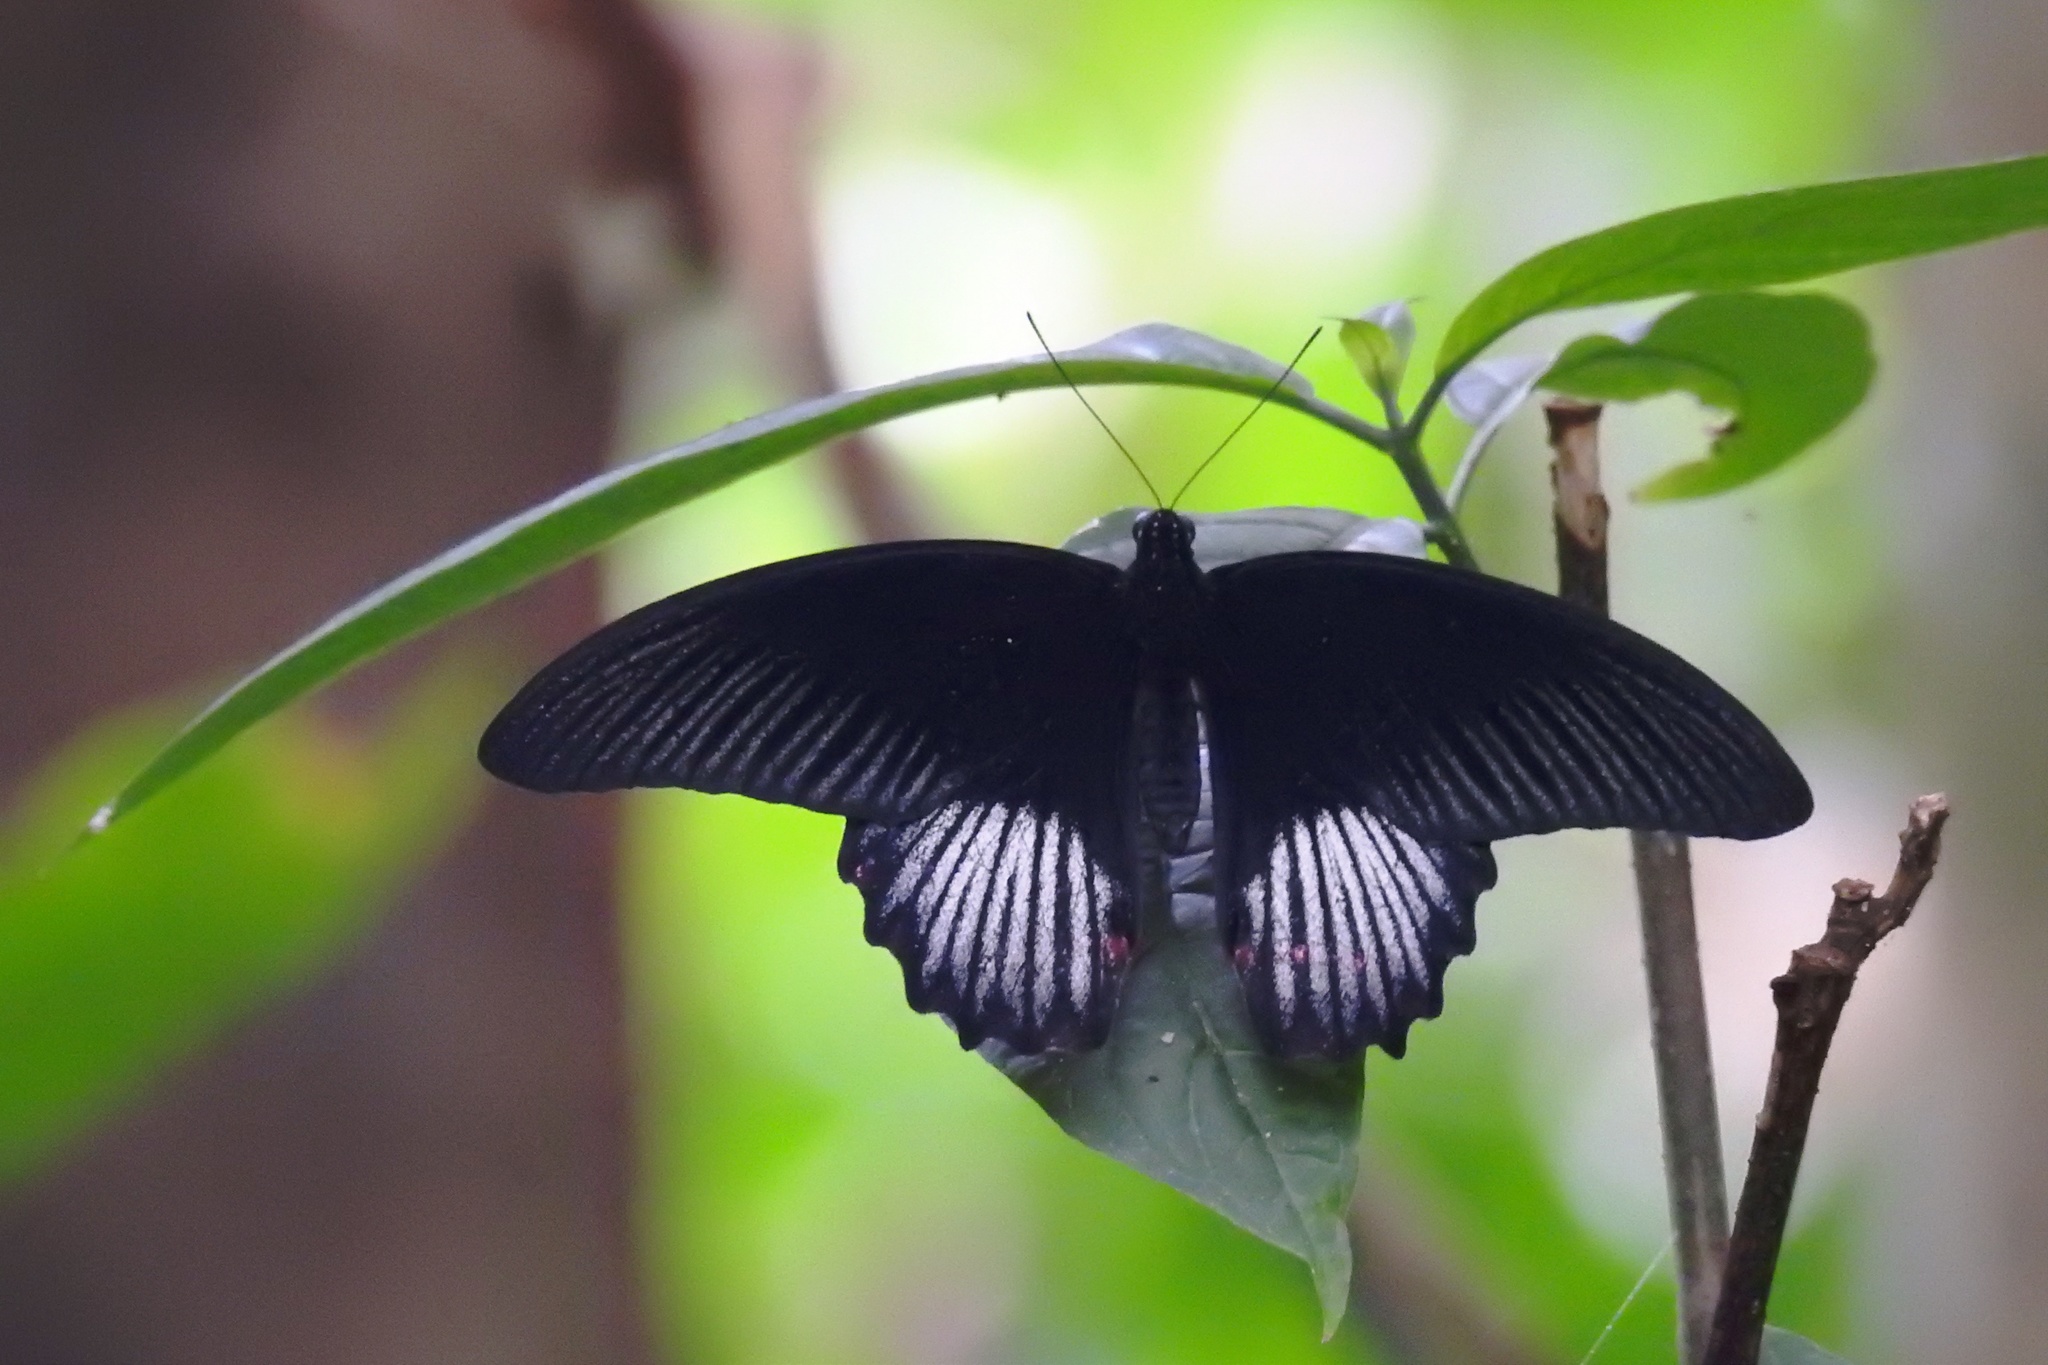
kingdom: Animalia
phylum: Arthropoda
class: Insecta
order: Lepidoptera
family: Papilionidae
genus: Papilio
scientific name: Papilio deiphobus
